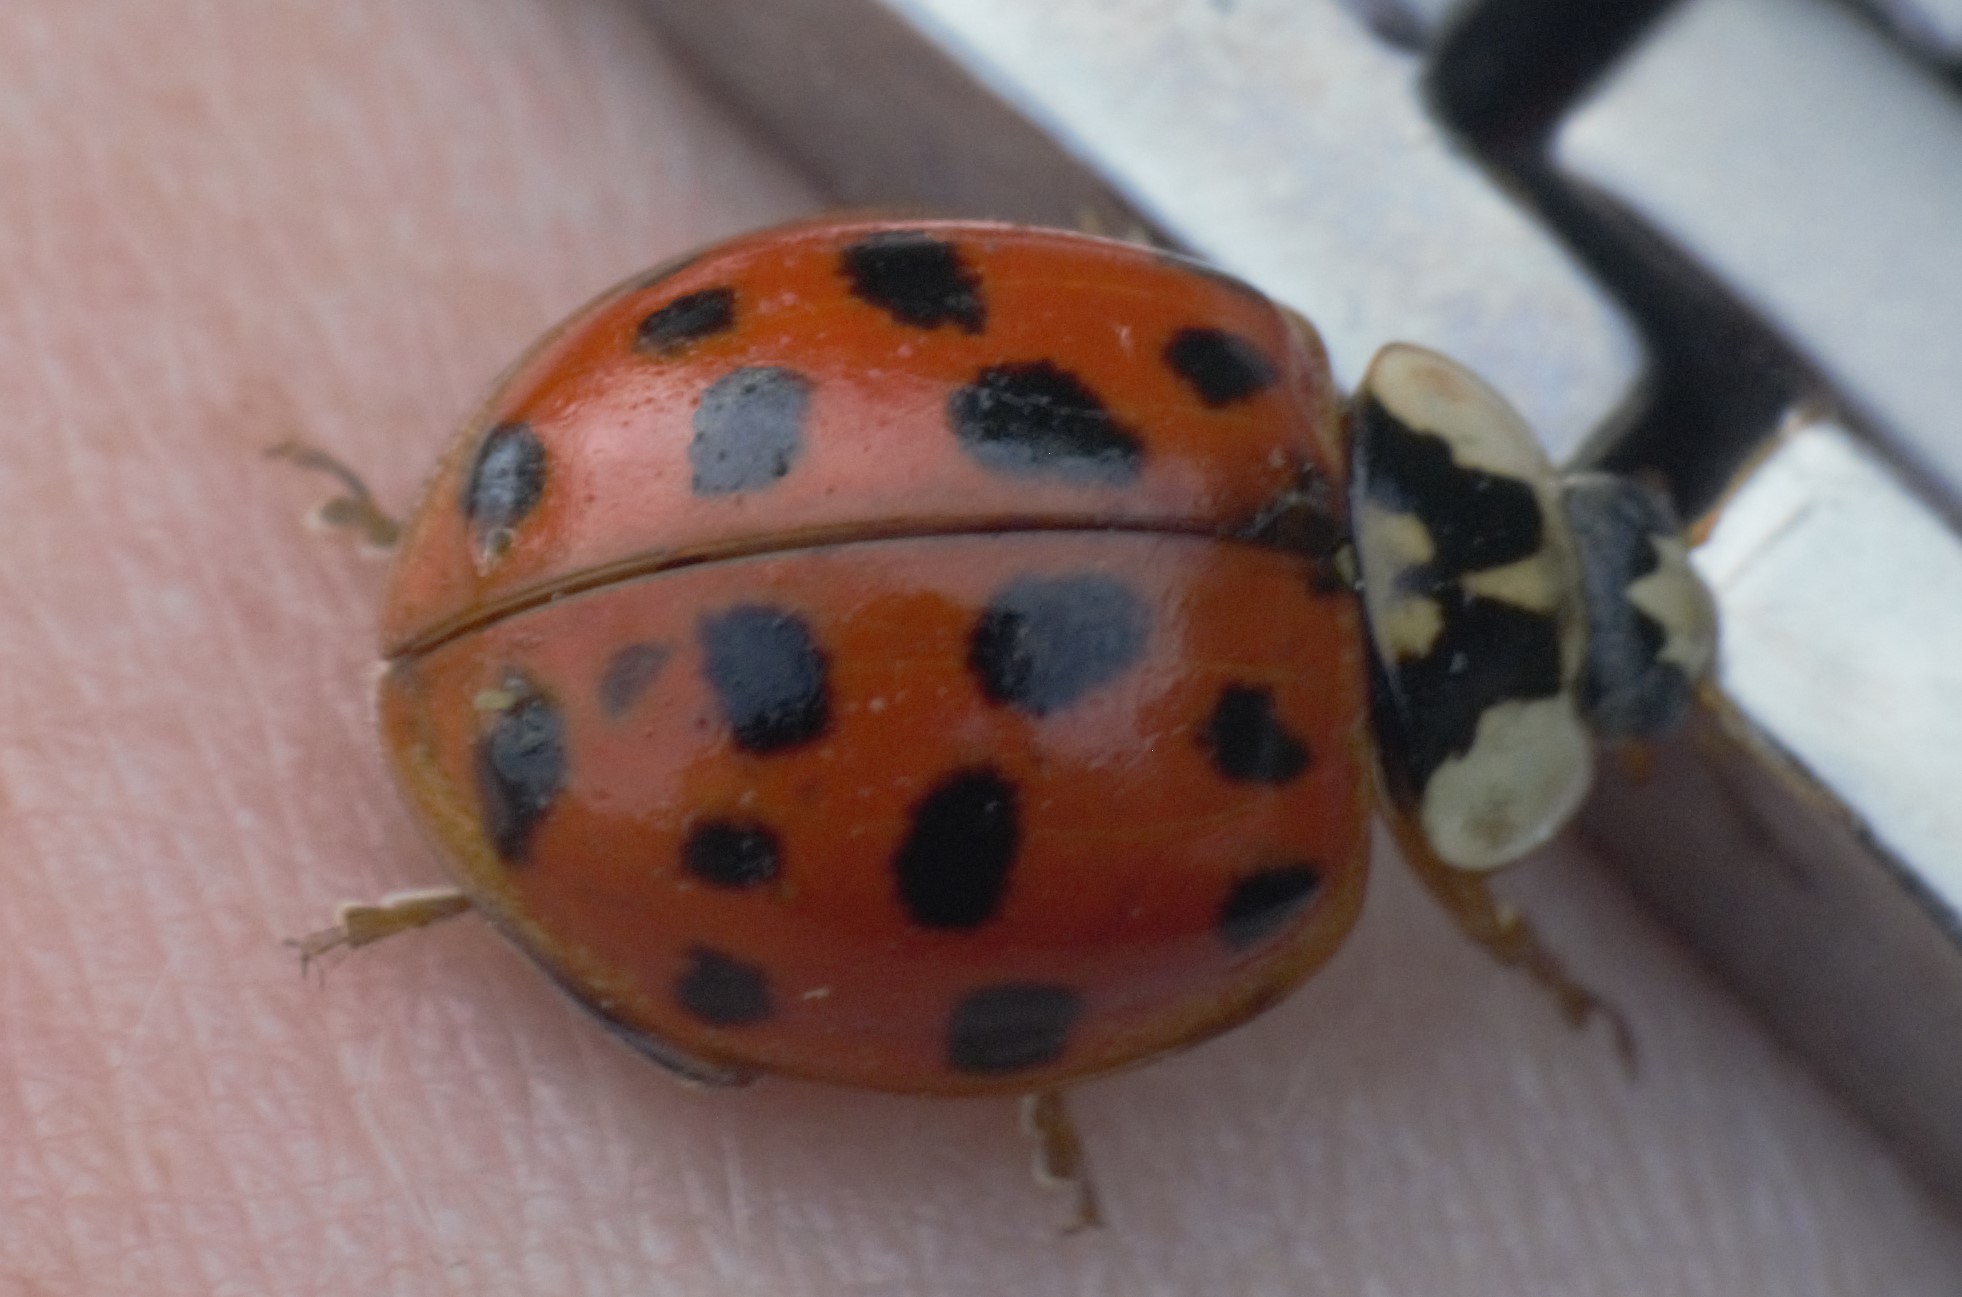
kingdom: Animalia
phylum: Arthropoda
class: Insecta
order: Coleoptera
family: Coccinellidae
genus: Harmonia
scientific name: Harmonia axyridis
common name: Harlequin ladybird
